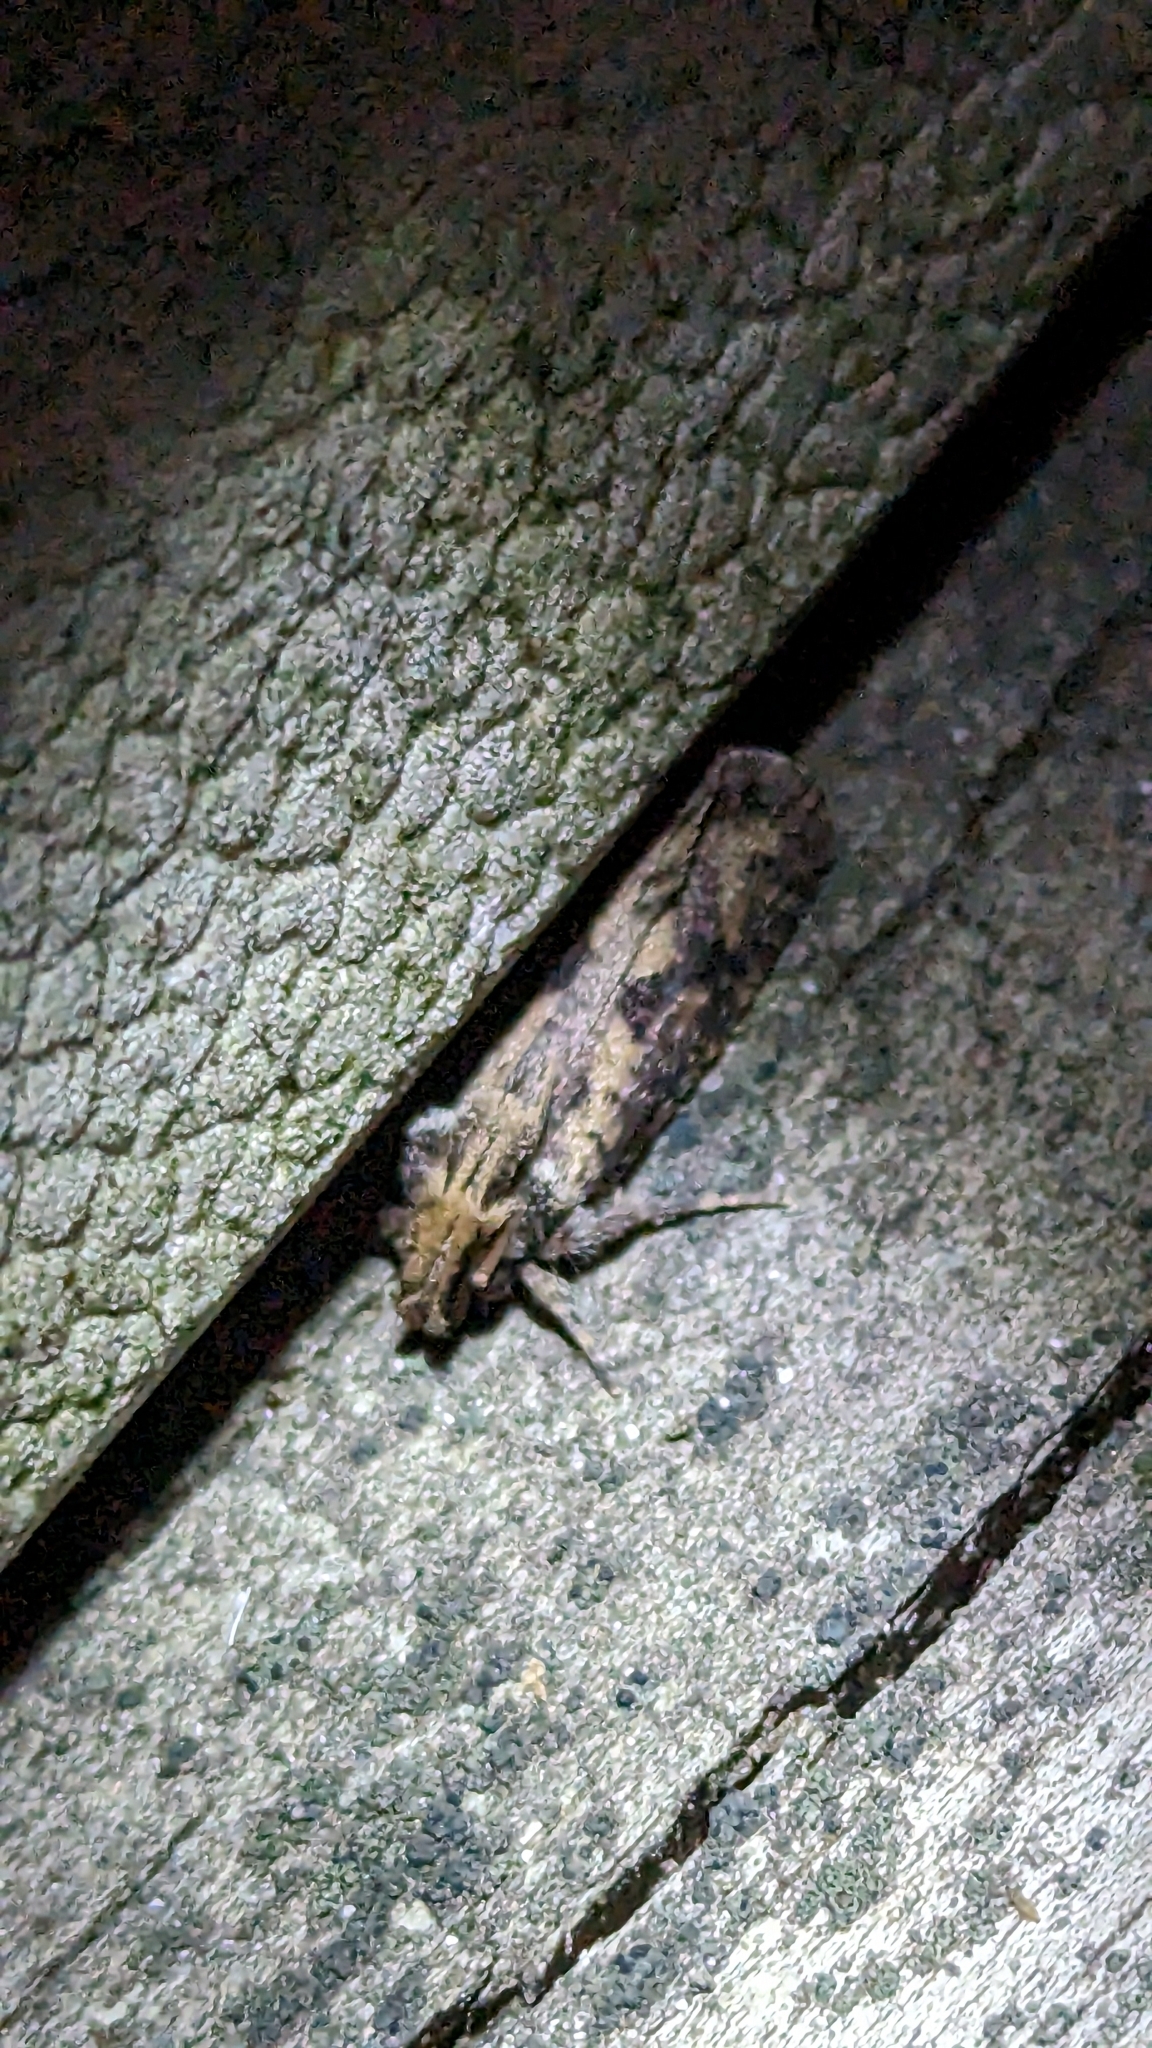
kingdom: Animalia
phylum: Arthropoda
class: Insecta
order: Lepidoptera
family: Tineidae
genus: Acrolophus
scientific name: Acrolophus popeanella
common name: Clemens' grass tubeworm moth
